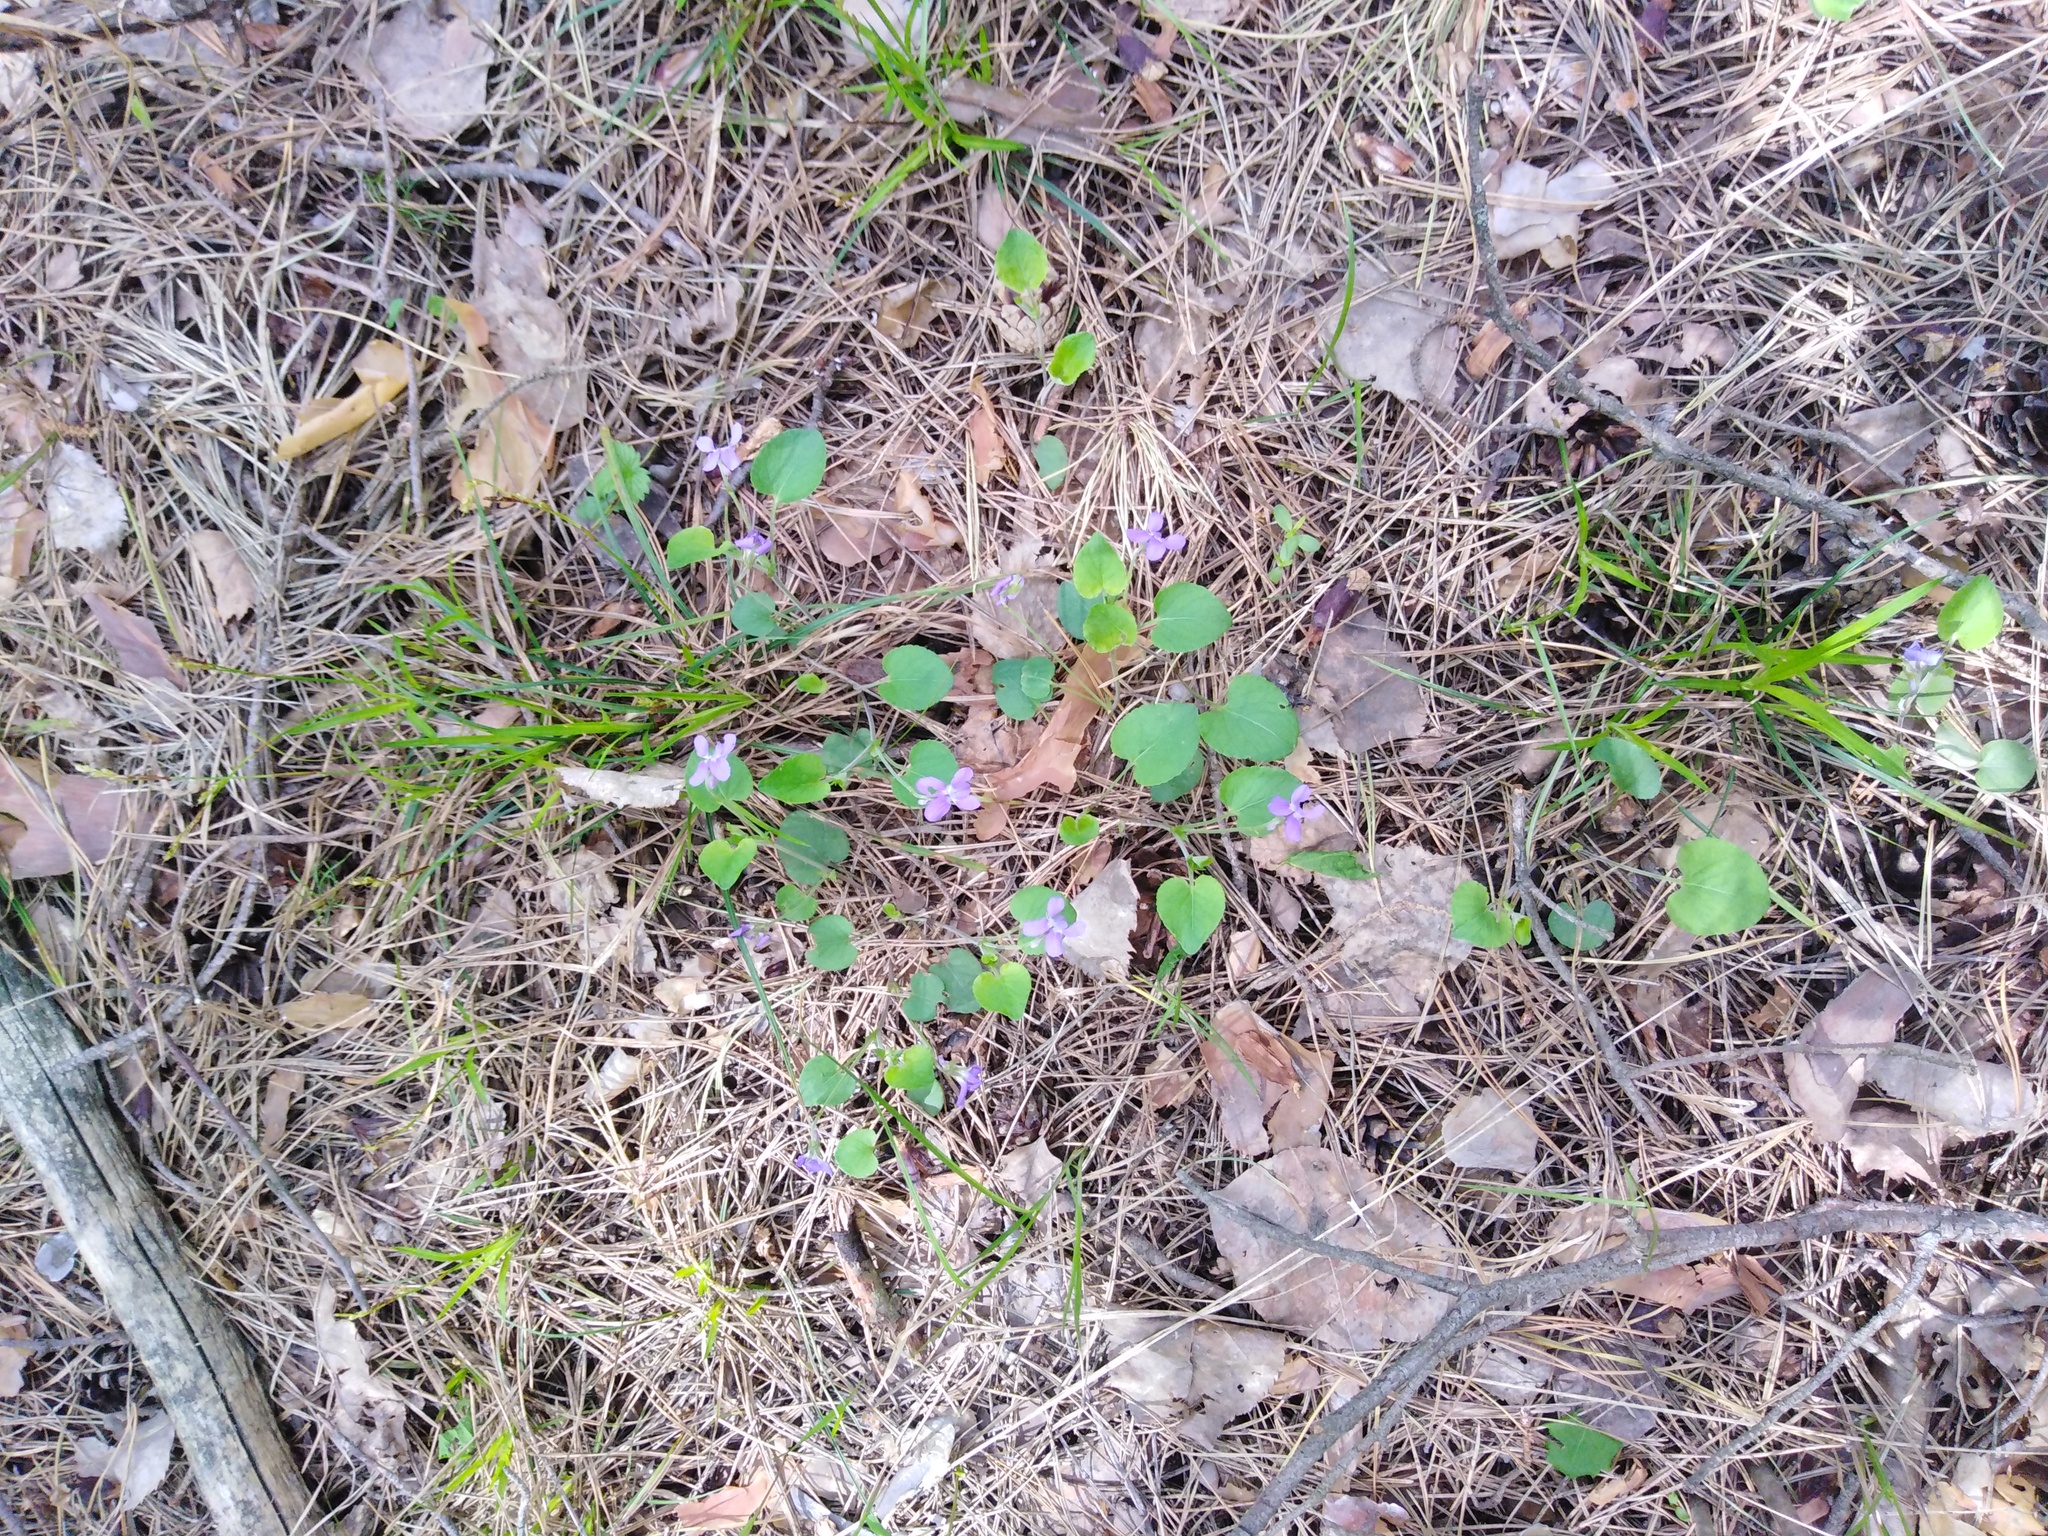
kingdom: Plantae
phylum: Tracheophyta
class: Magnoliopsida
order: Malpighiales
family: Violaceae
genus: Viola
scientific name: Viola rupestris
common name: Teesdale violet
